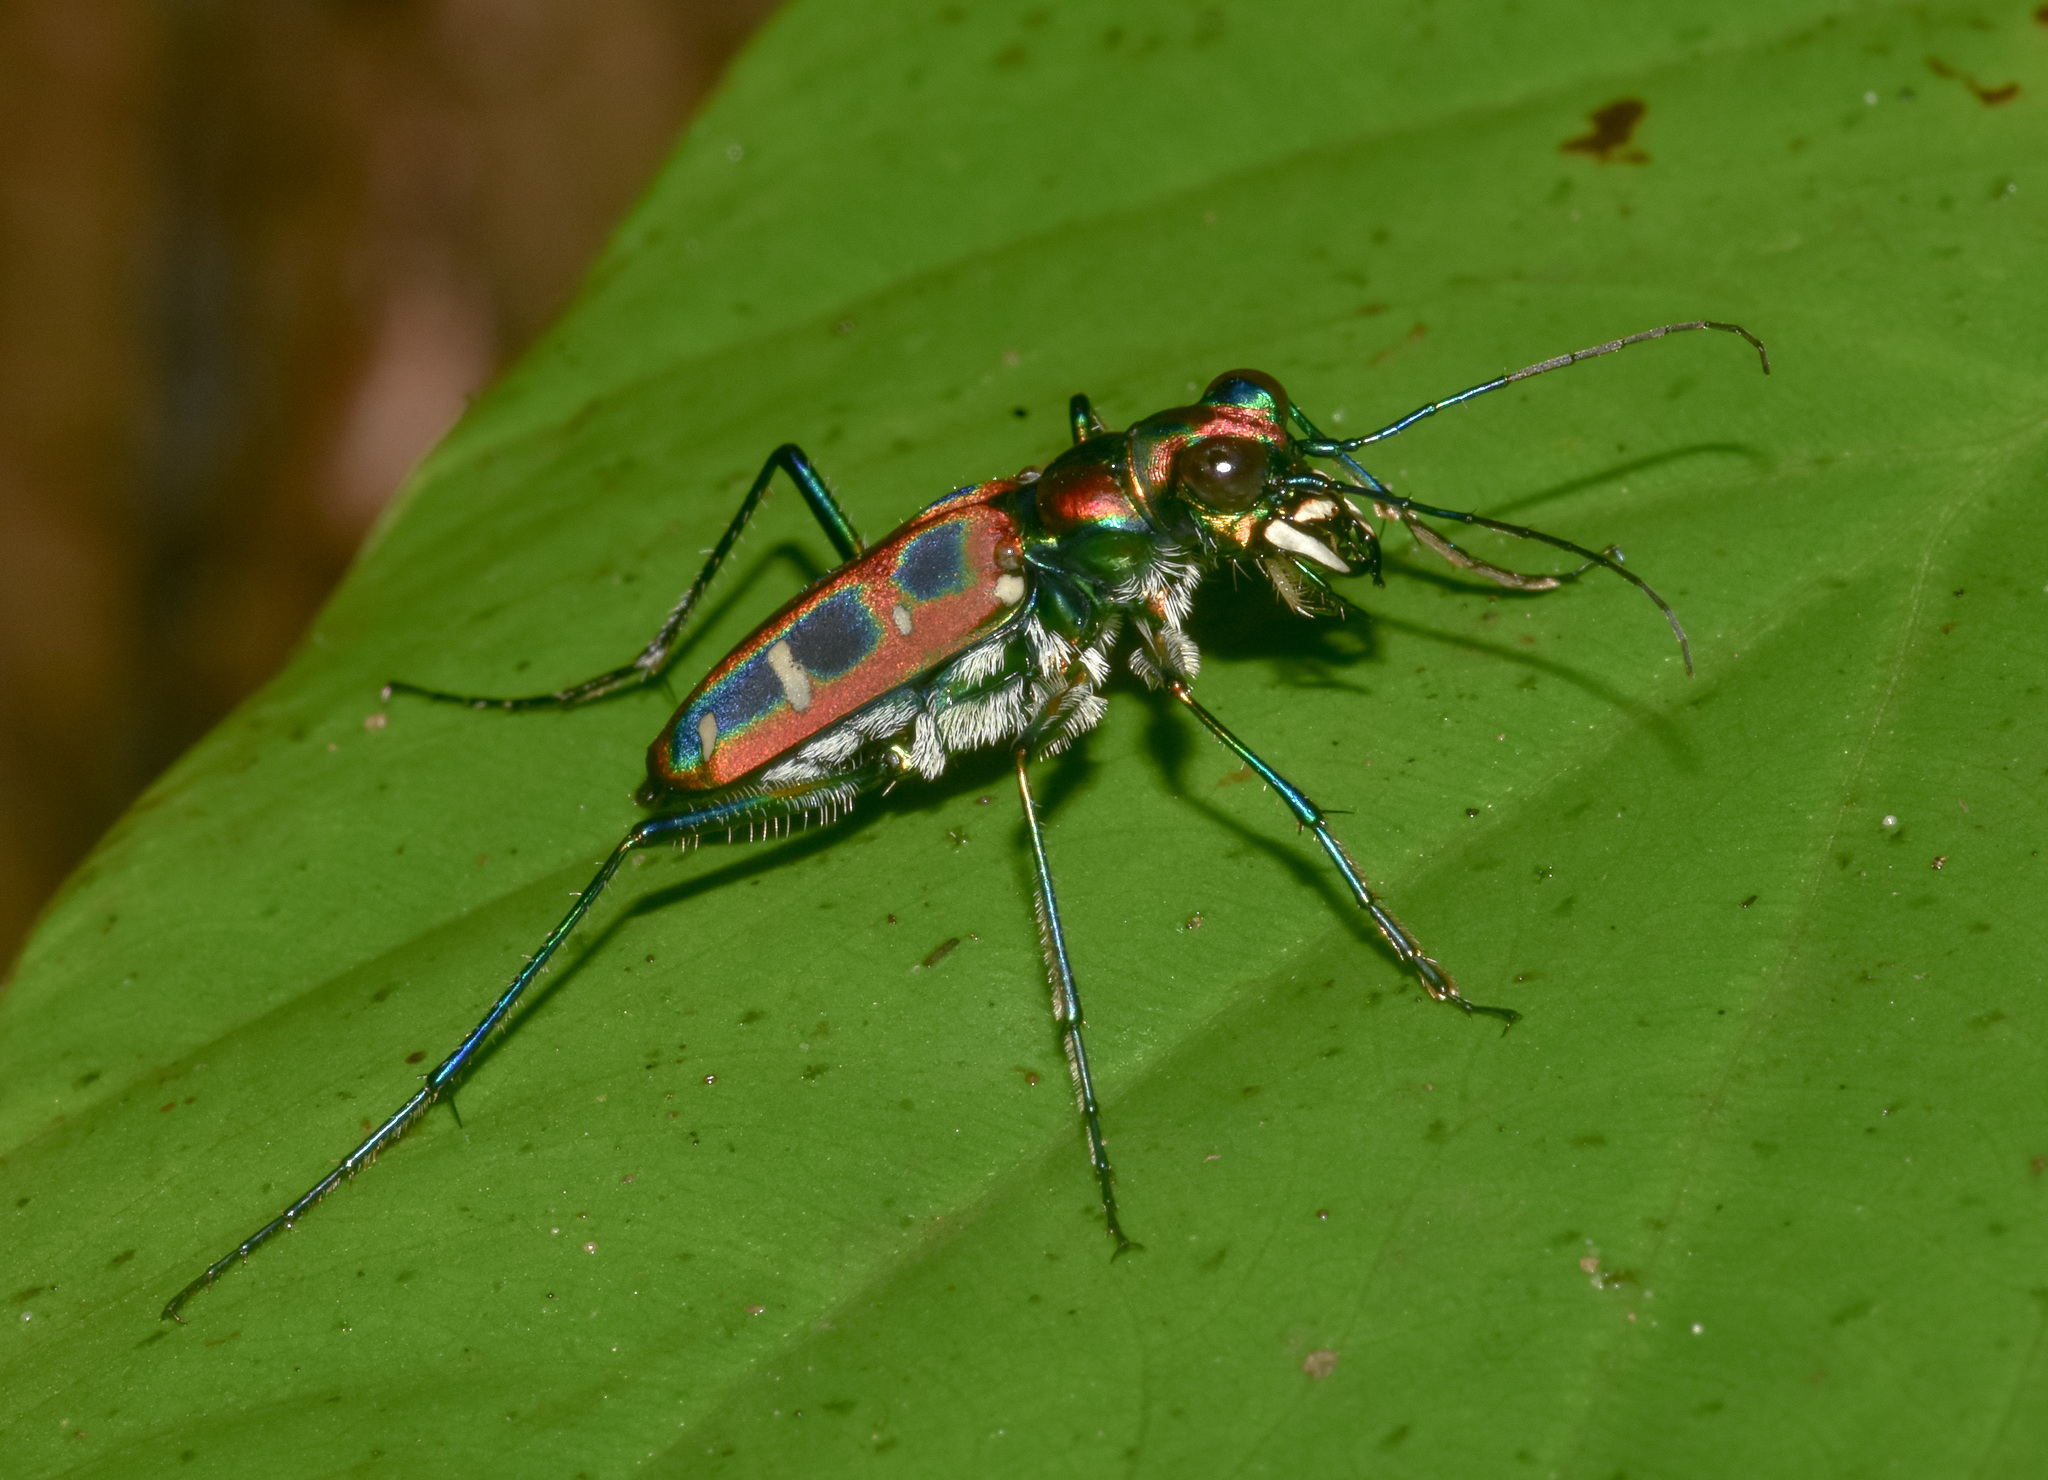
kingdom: Animalia
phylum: Arthropoda
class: Insecta
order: Coleoptera
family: Carabidae
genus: Cicindela
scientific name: Cicindela barmanica
